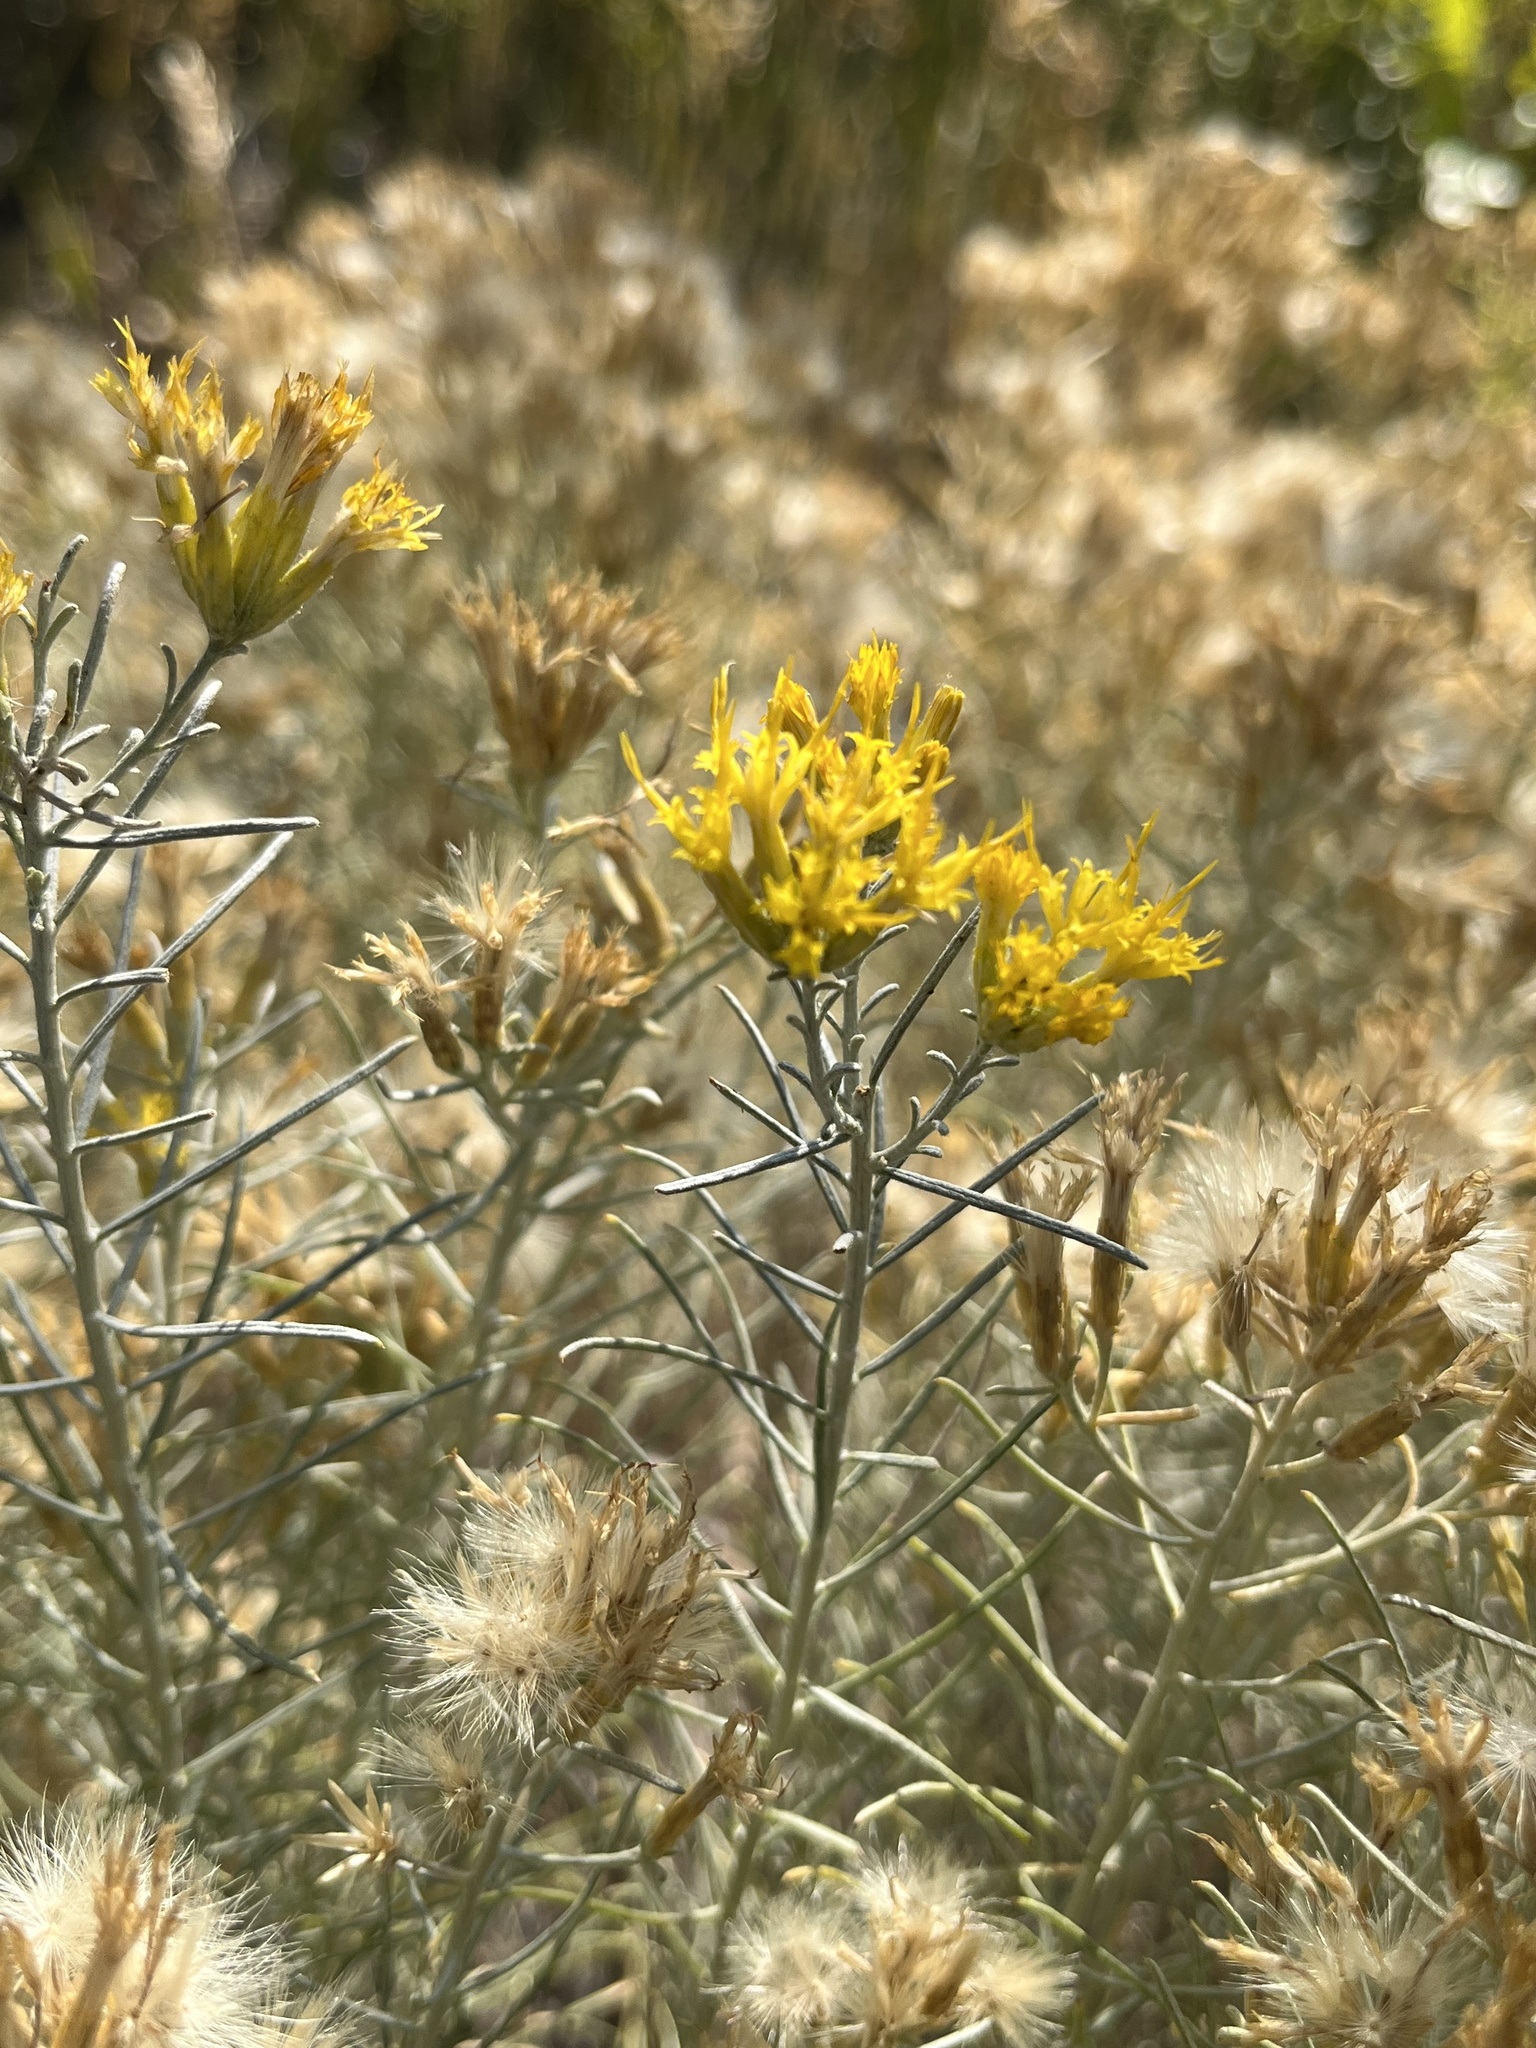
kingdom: Plantae
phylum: Tracheophyta
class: Magnoliopsida
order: Asterales
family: Asteraceae
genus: Ericameria
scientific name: Ericameria nauseosa
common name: Rubber rabbitbrush
